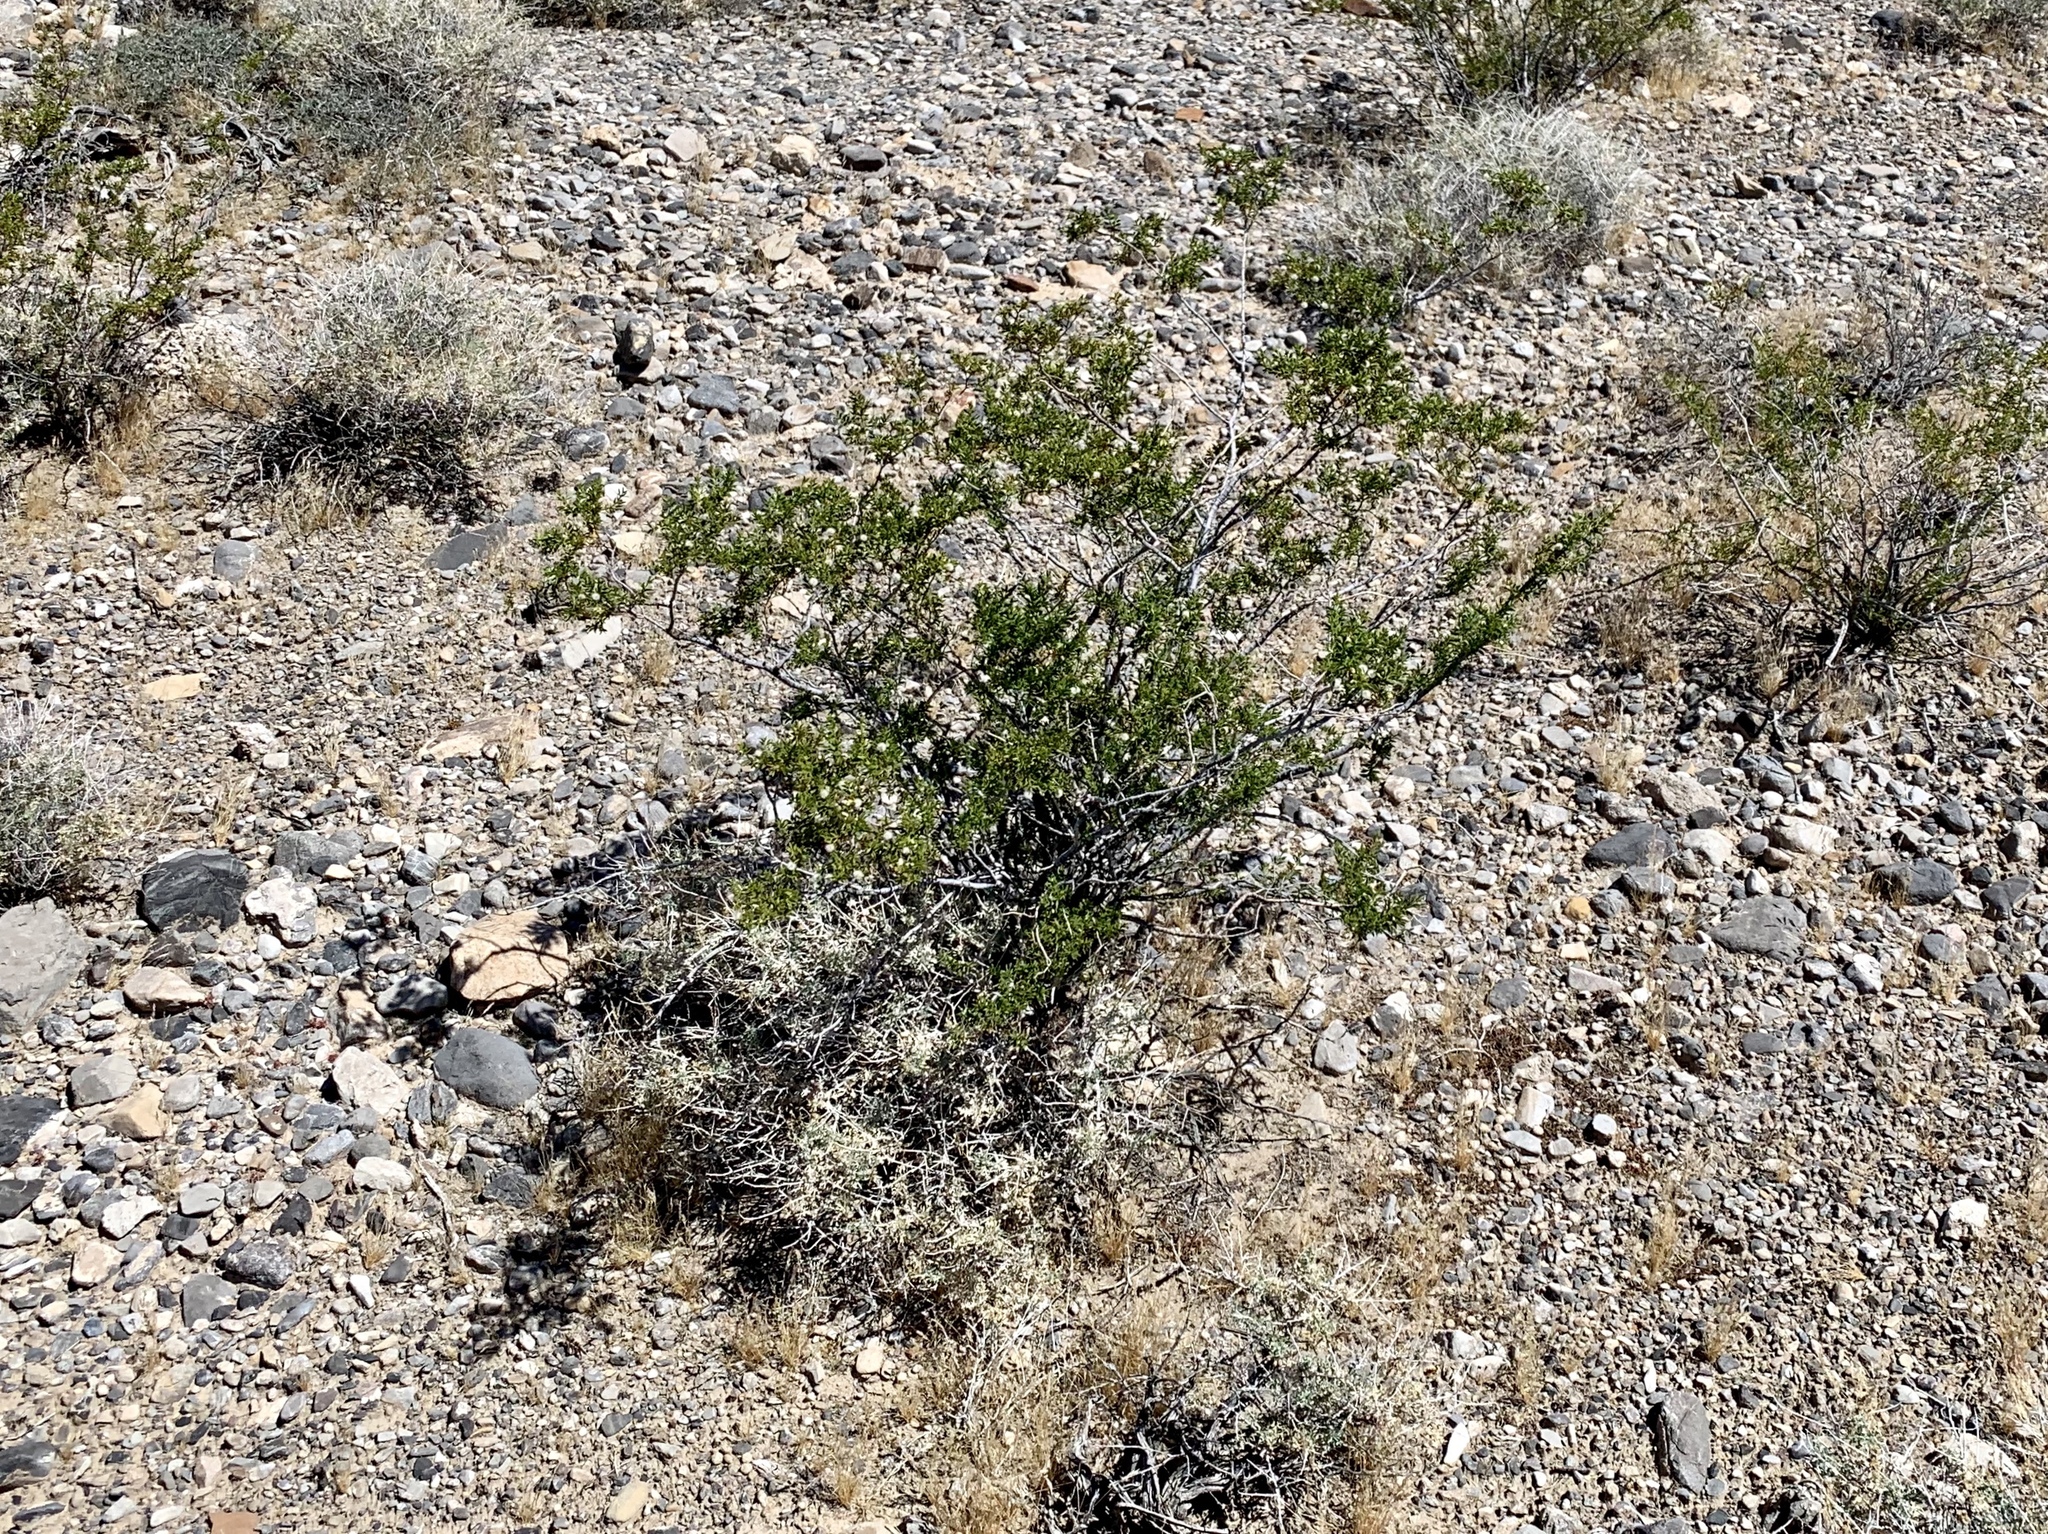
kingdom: Plantae
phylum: Tracheophyta
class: Magnoliopsida
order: Zygophyllales
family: Zygophyllaceae
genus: Larrea
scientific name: Larrea tridentata
